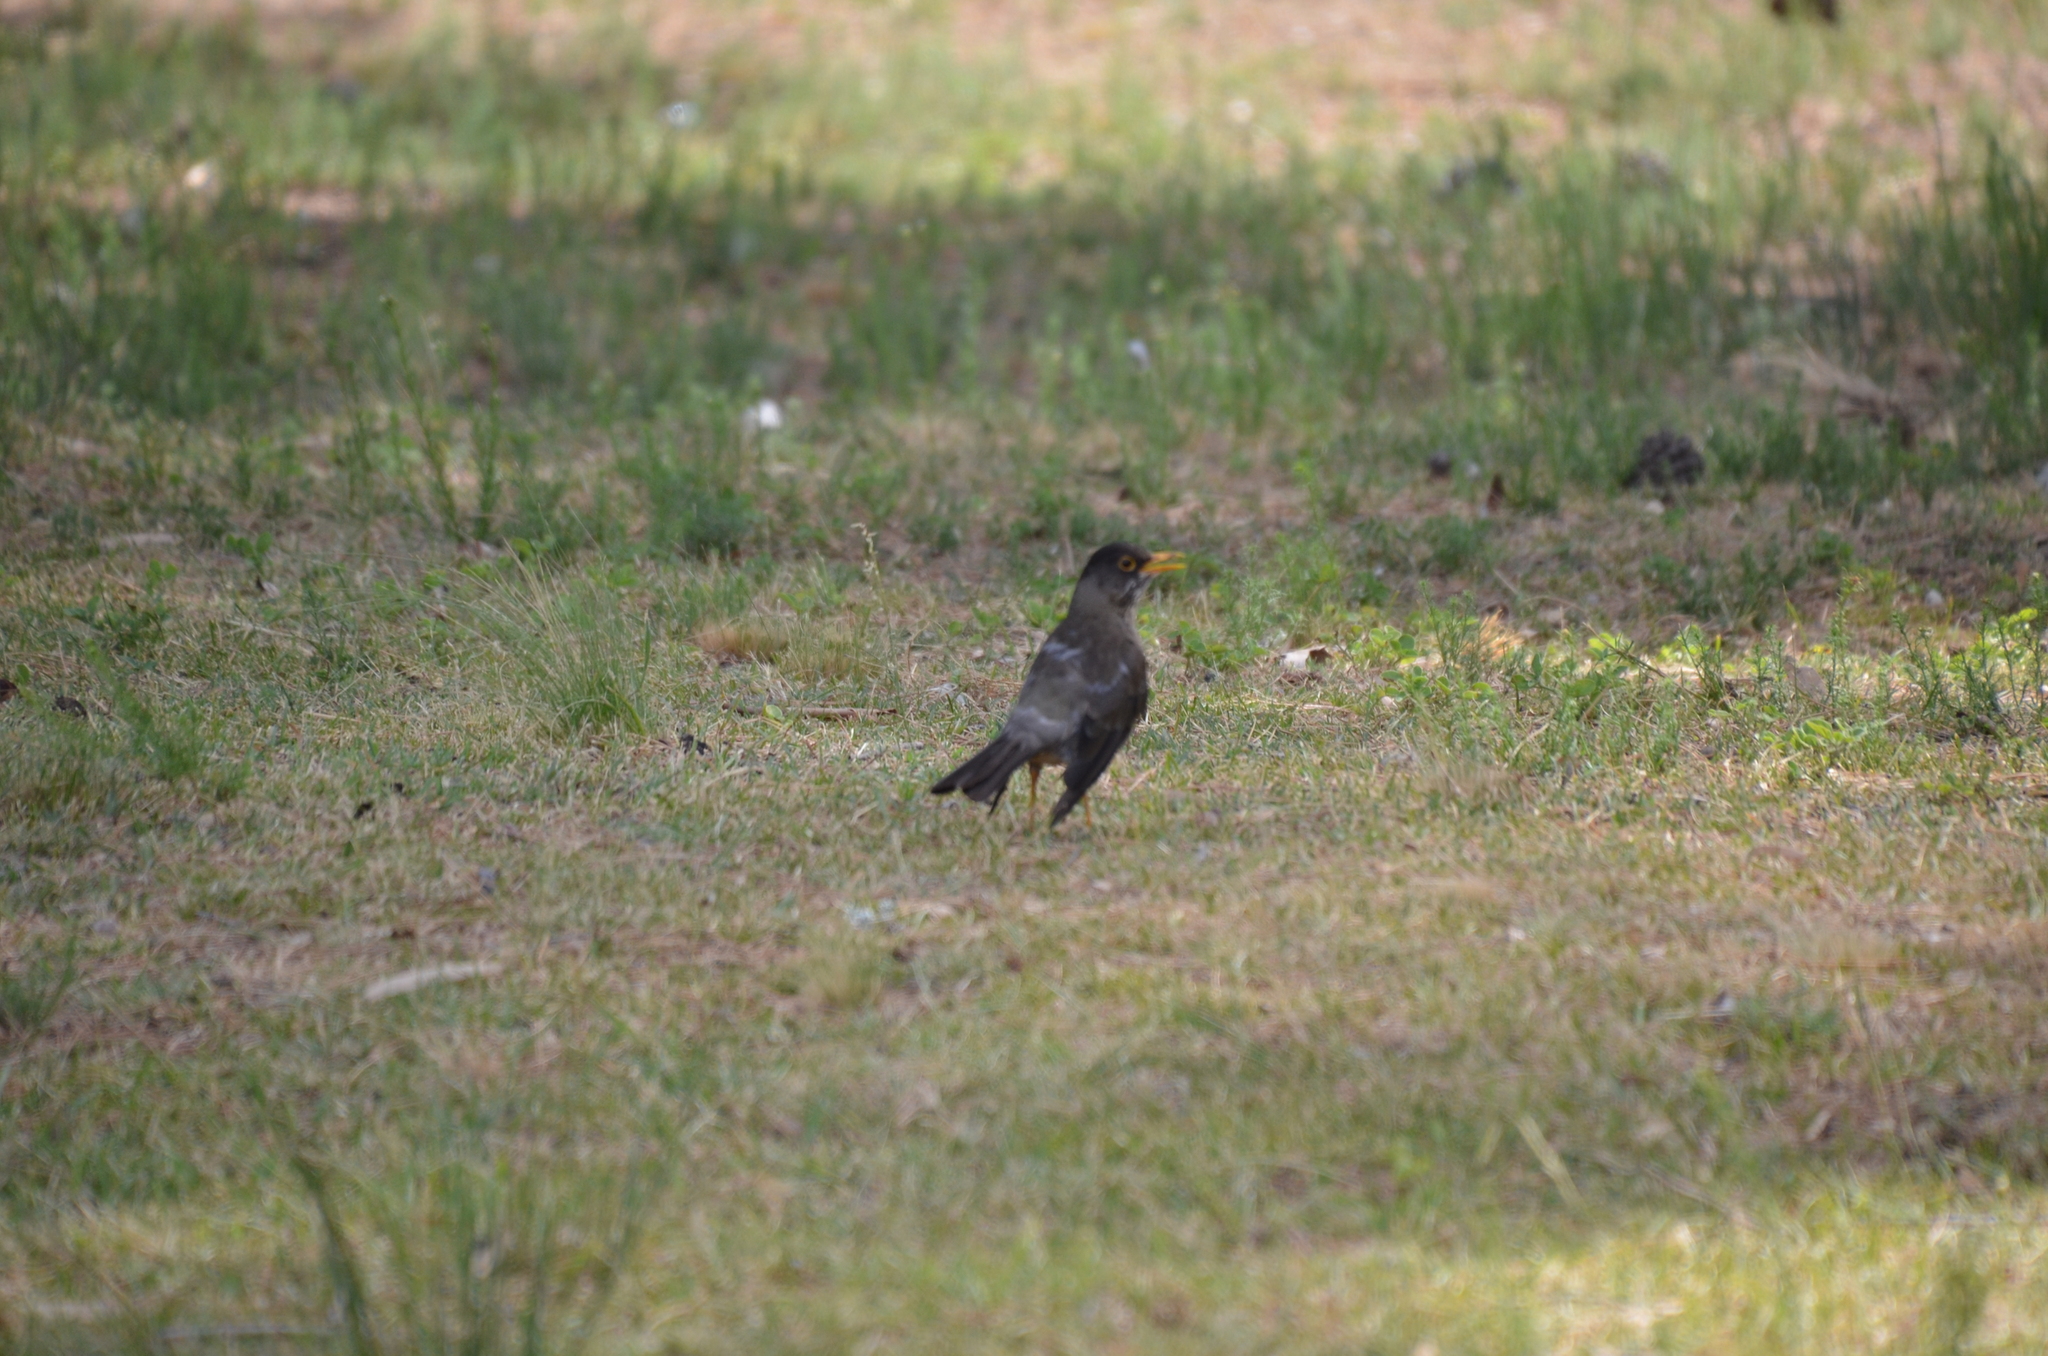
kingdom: Animalia
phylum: Chordata
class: Aves
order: Passeriformes
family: Turdidae
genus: Turdus
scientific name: Turdus falcklandii
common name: Austral thrush
